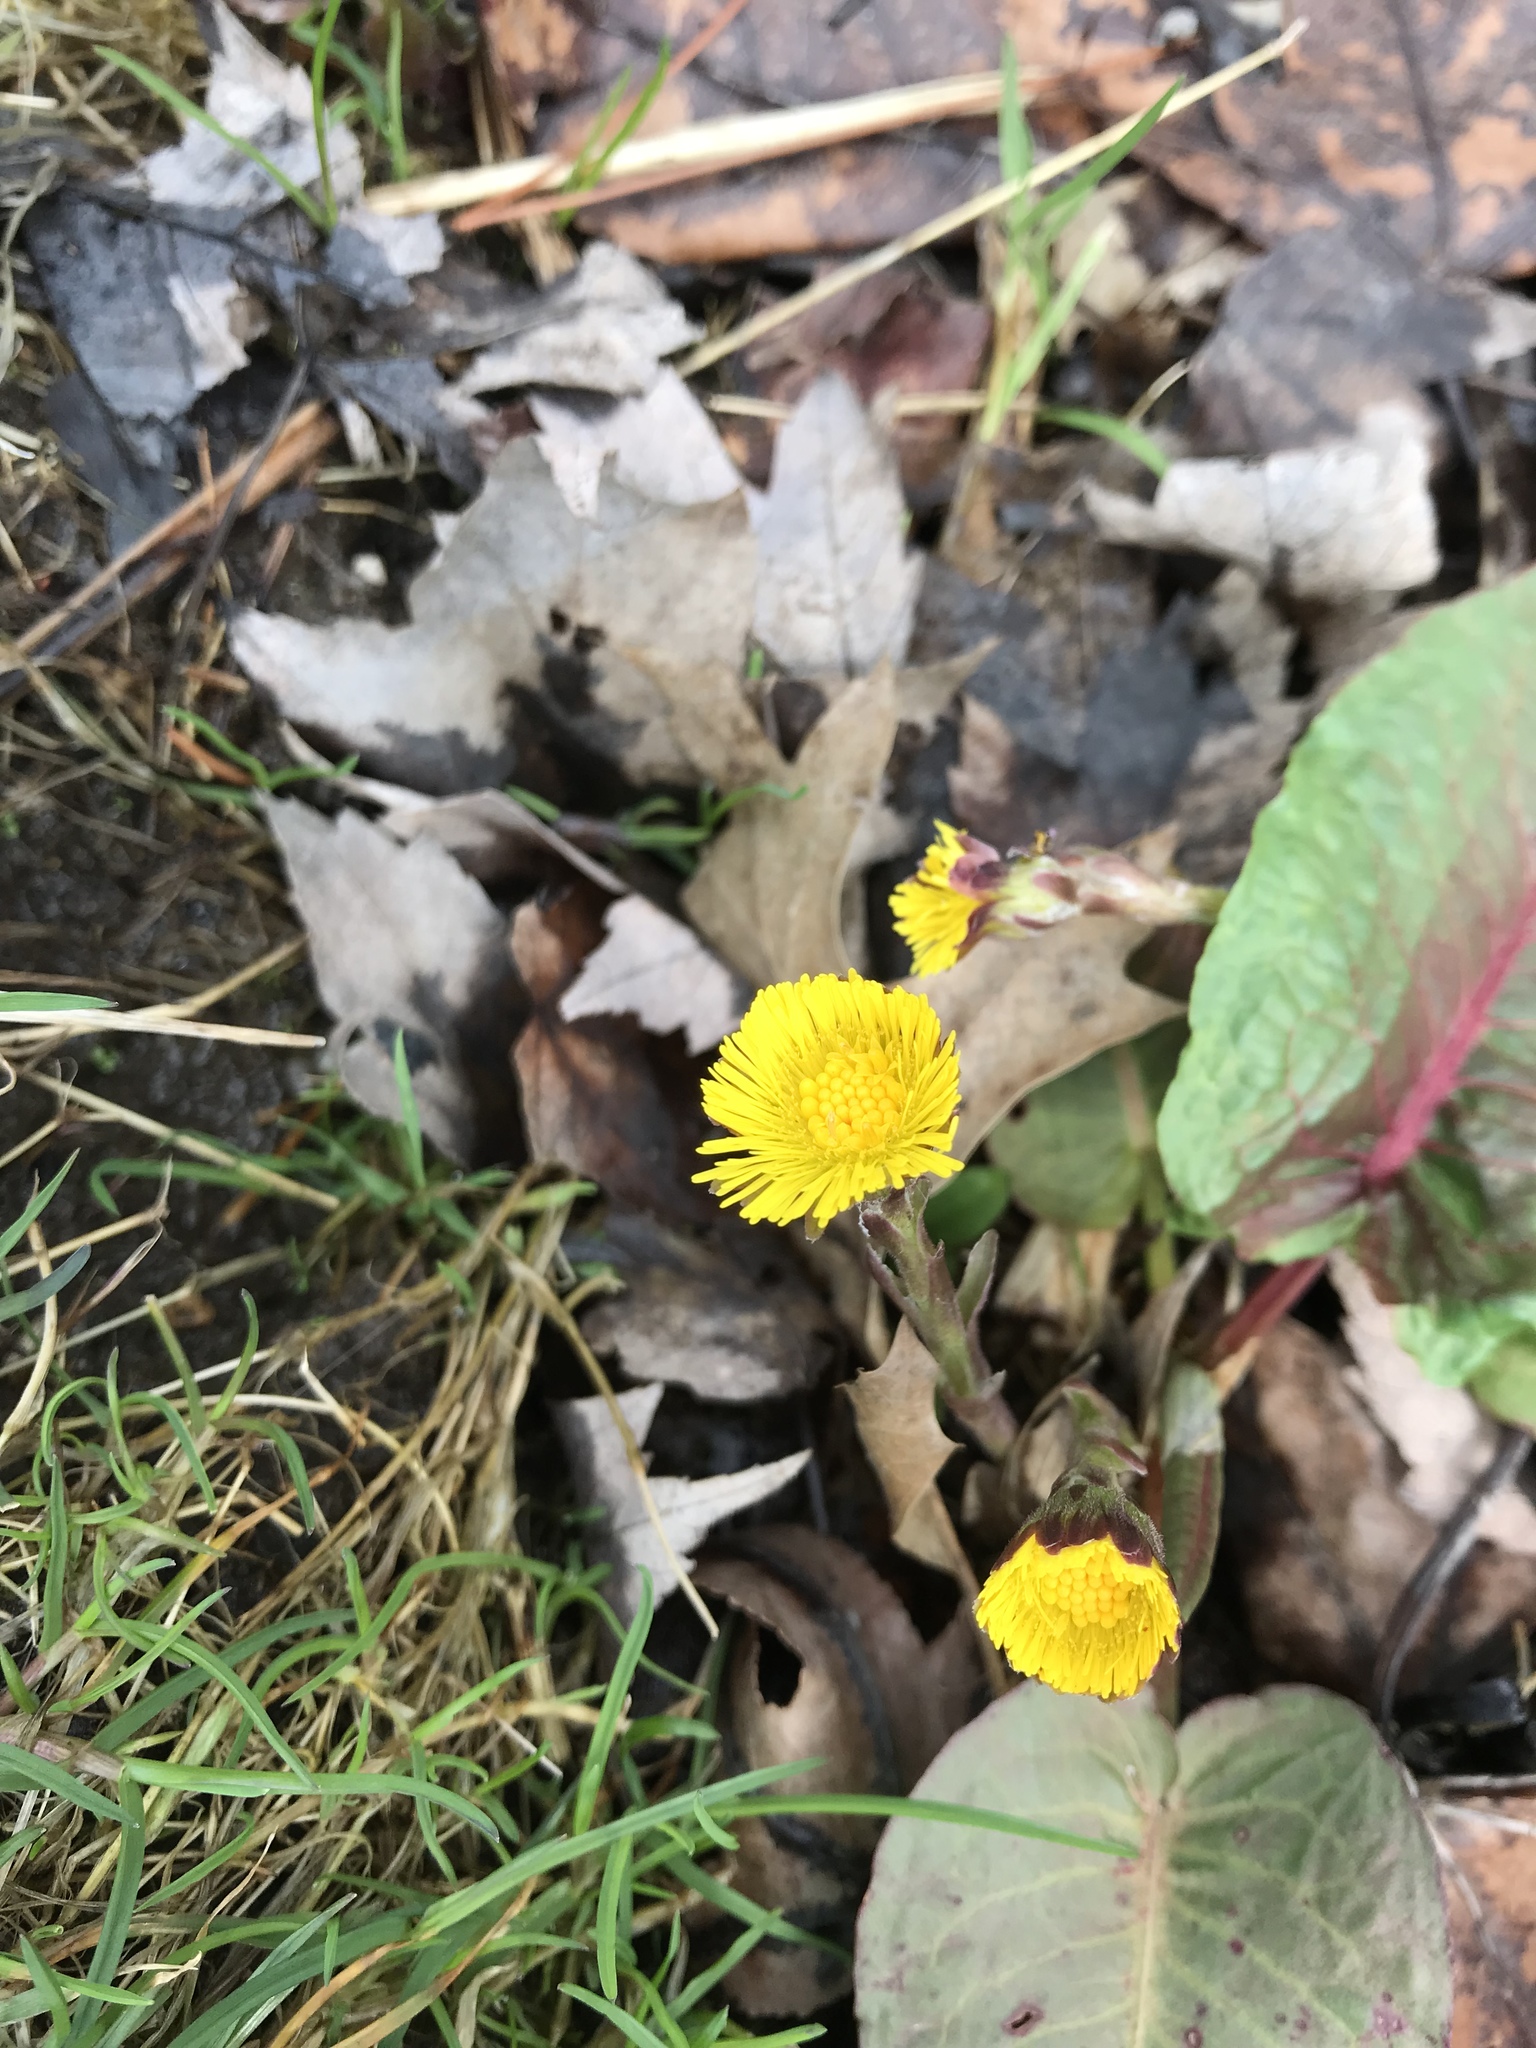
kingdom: Plantae
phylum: Tracheophyta
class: Magnoliopsida
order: Asterales
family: Asteraceae
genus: Tussilago
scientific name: Tussilago farfara
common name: Coltsfoot
